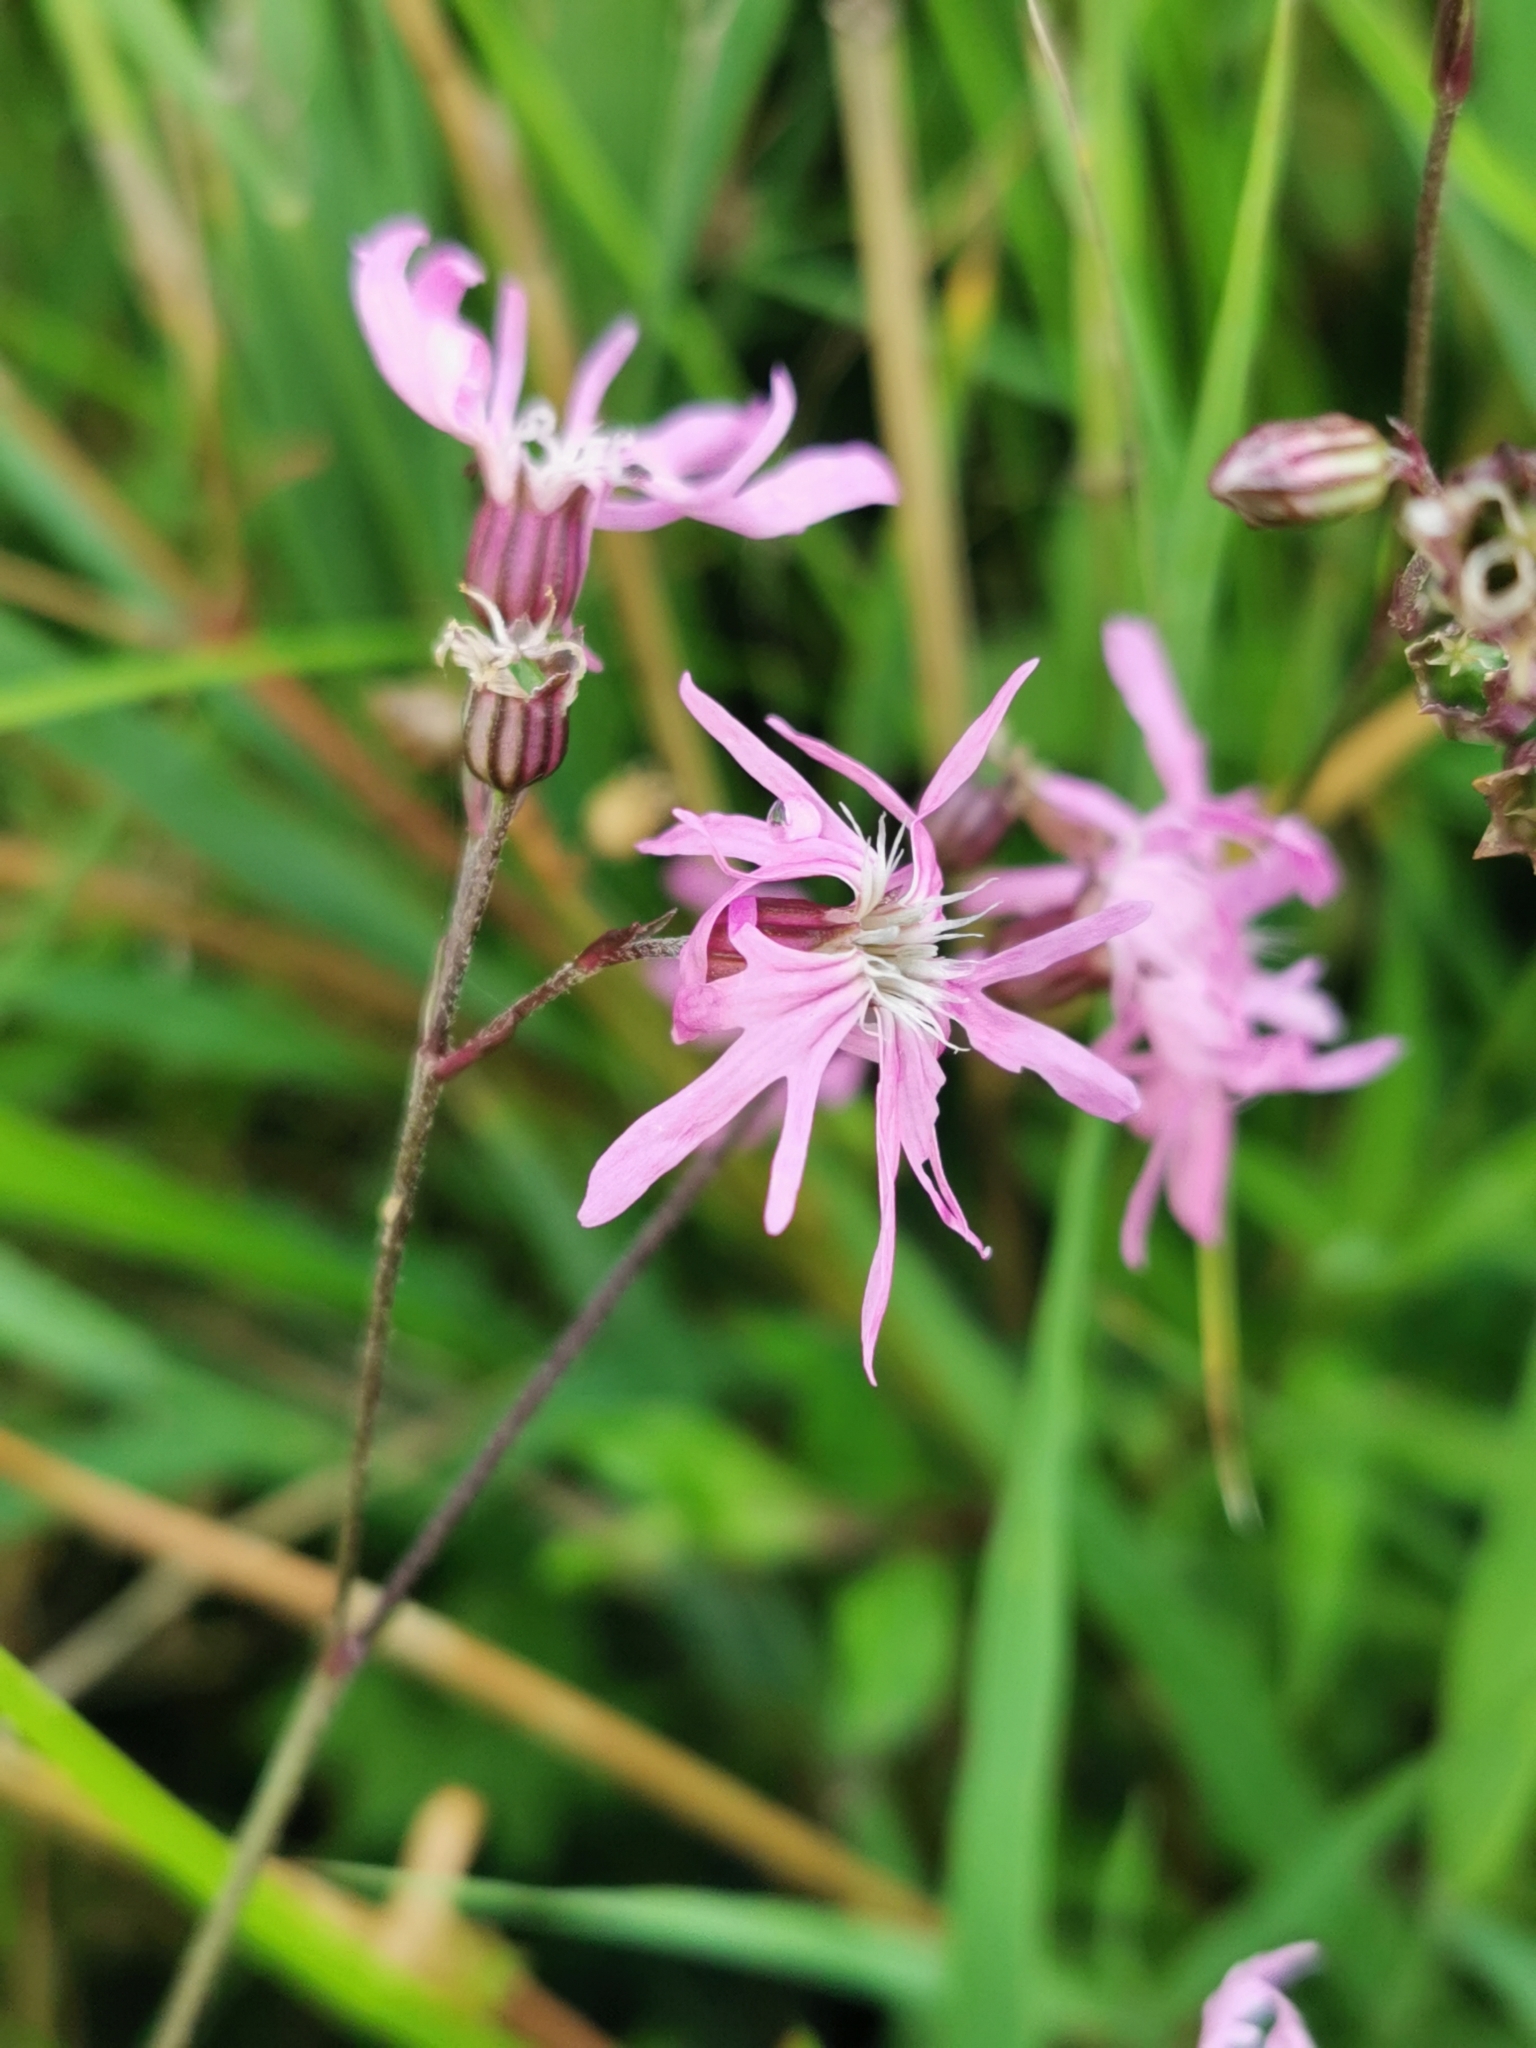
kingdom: Plantae
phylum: Tracheophyta
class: Magnoliopsida
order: Caryophyllales
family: Caryophyllaceae
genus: Silene
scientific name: Silene flos-cuculi
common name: Ragged-robin
